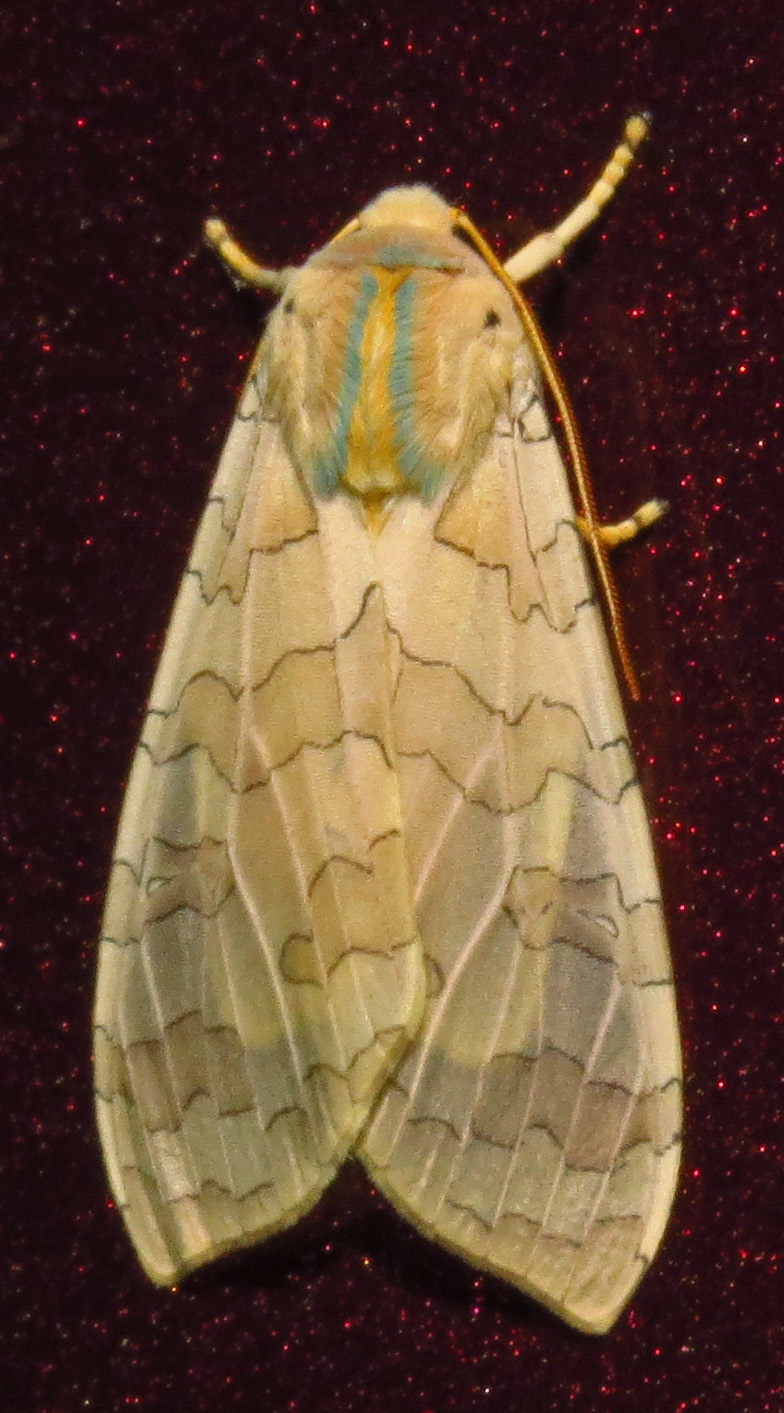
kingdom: Animalia
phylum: Arthropoda
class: Insecta
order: Lepidoptera
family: Erebidae
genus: Halysidota
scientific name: Halysidota
